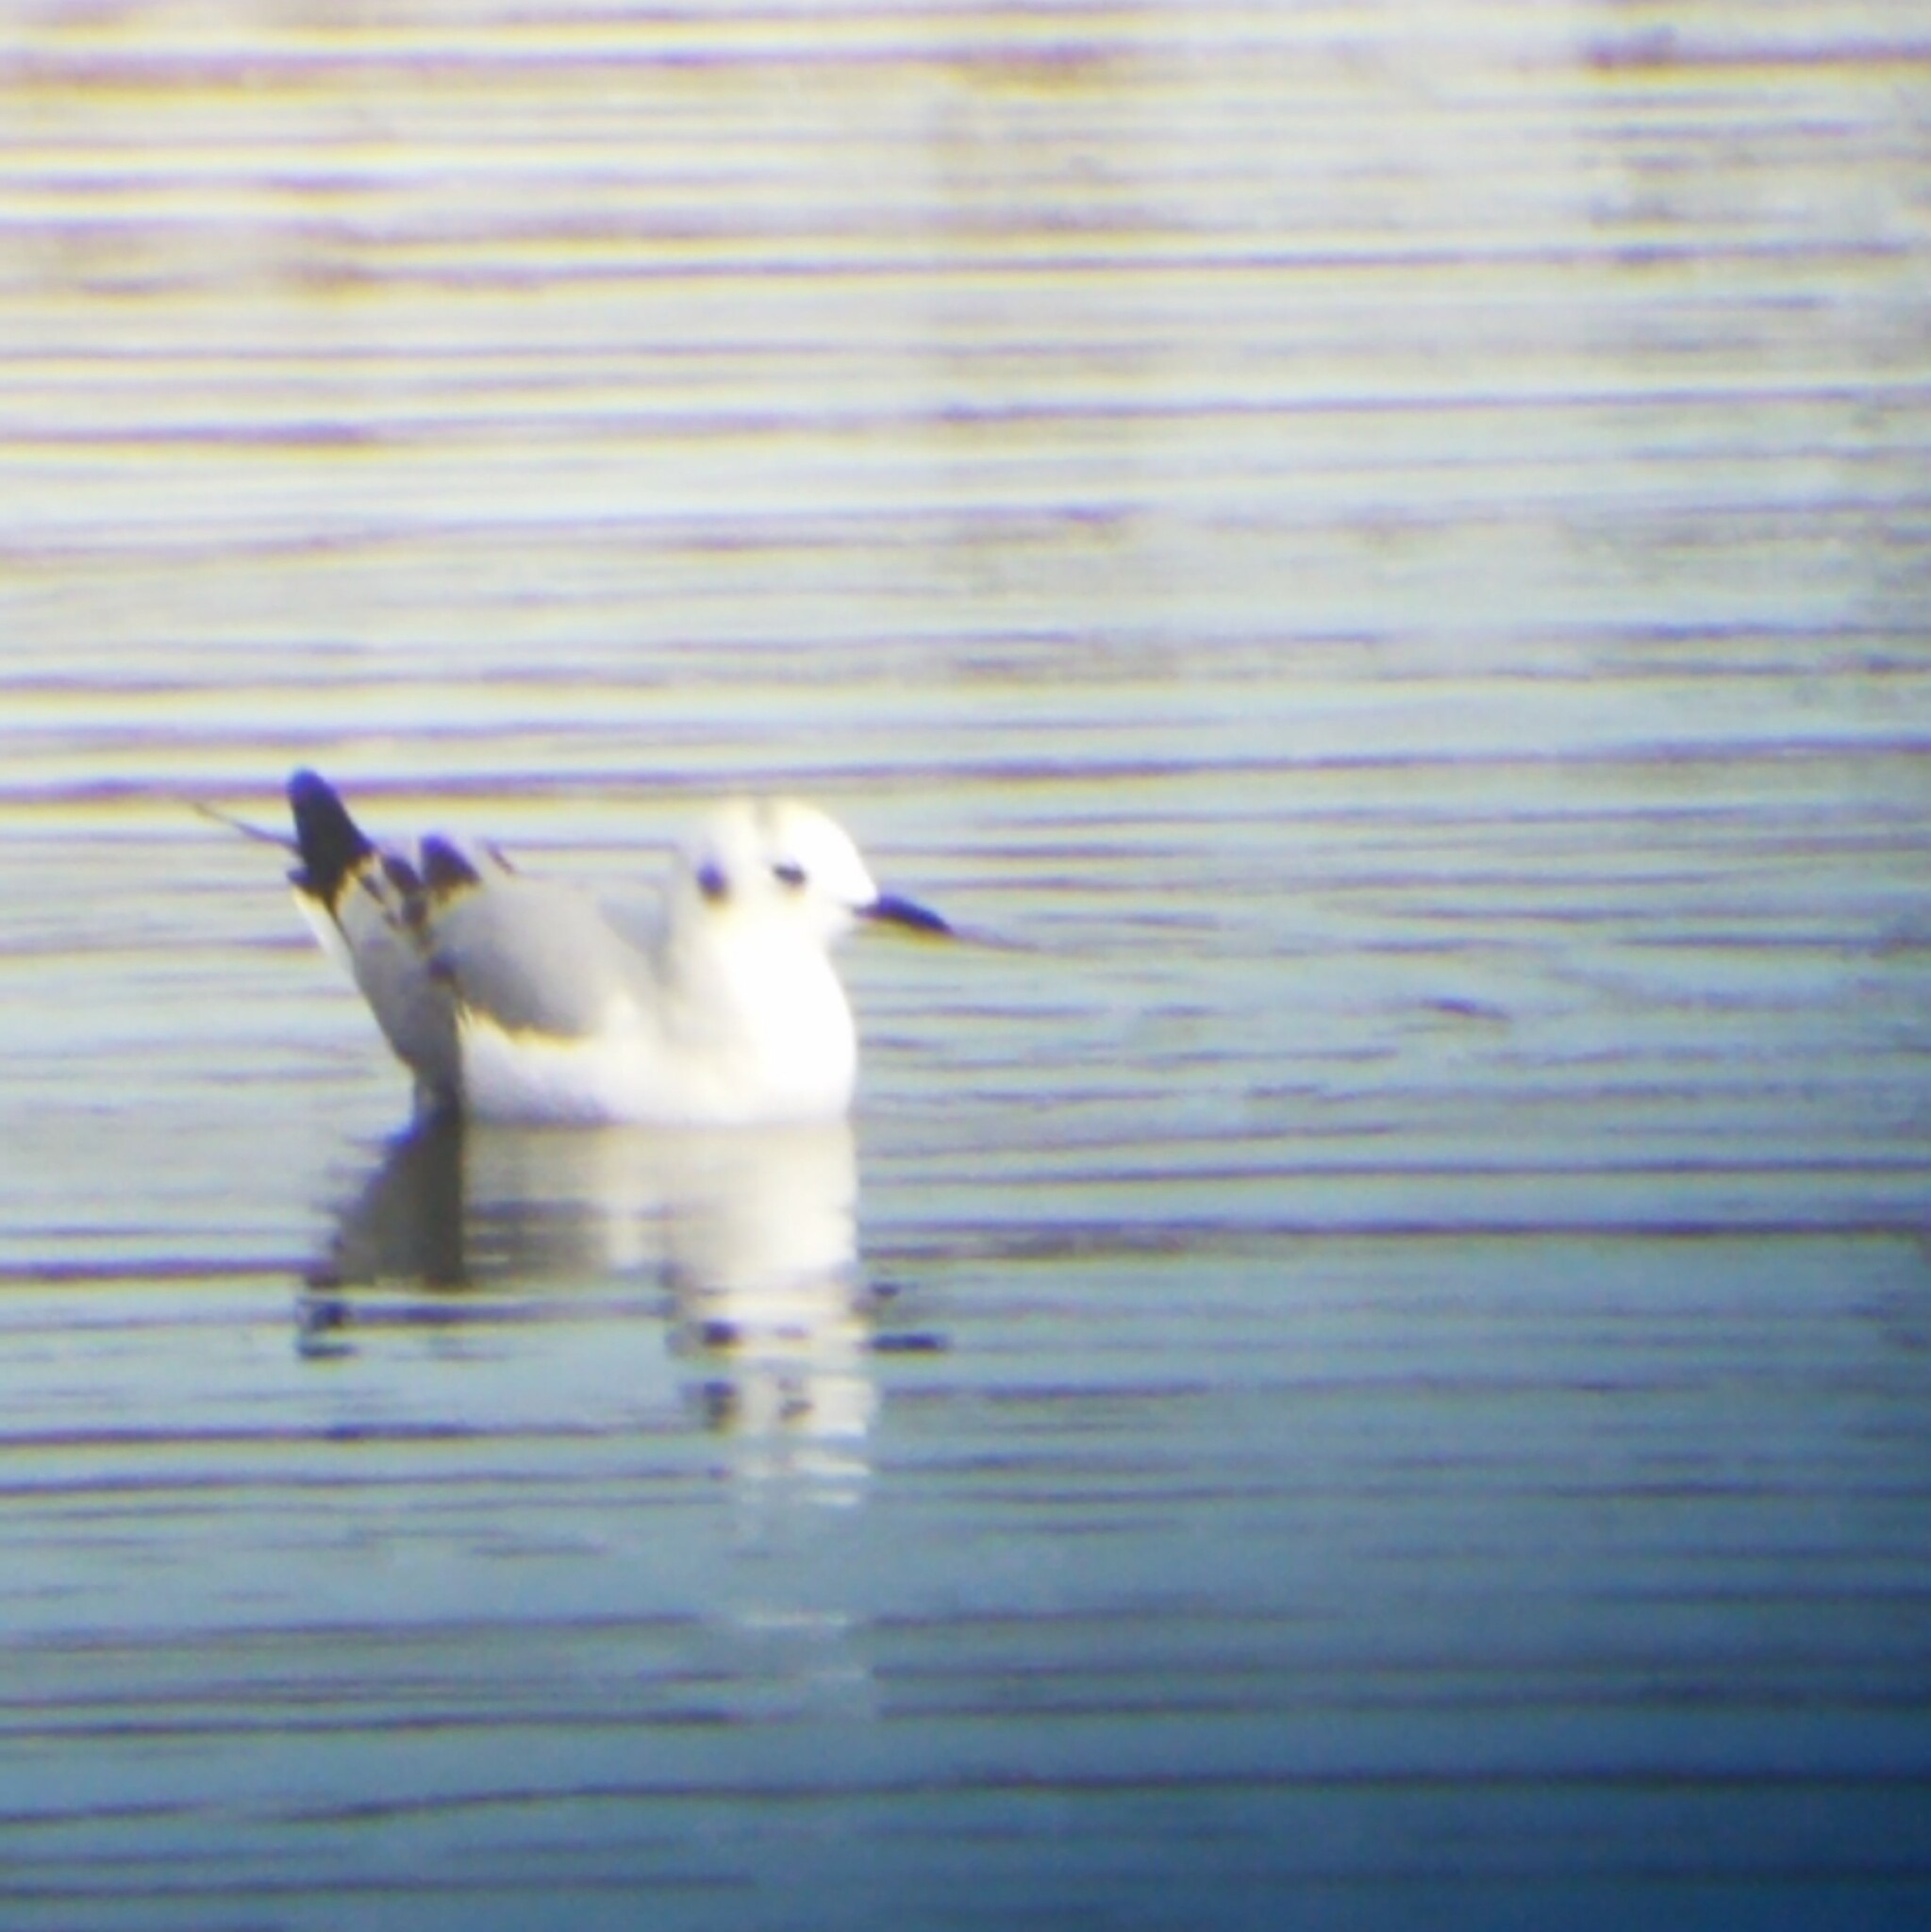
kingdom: Animalia
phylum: Chordata
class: Aves
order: Charadriiformes
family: Laridae
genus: Chroicocephalus
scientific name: Chroicocephalus philadelphia
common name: Bonaparte's gull
